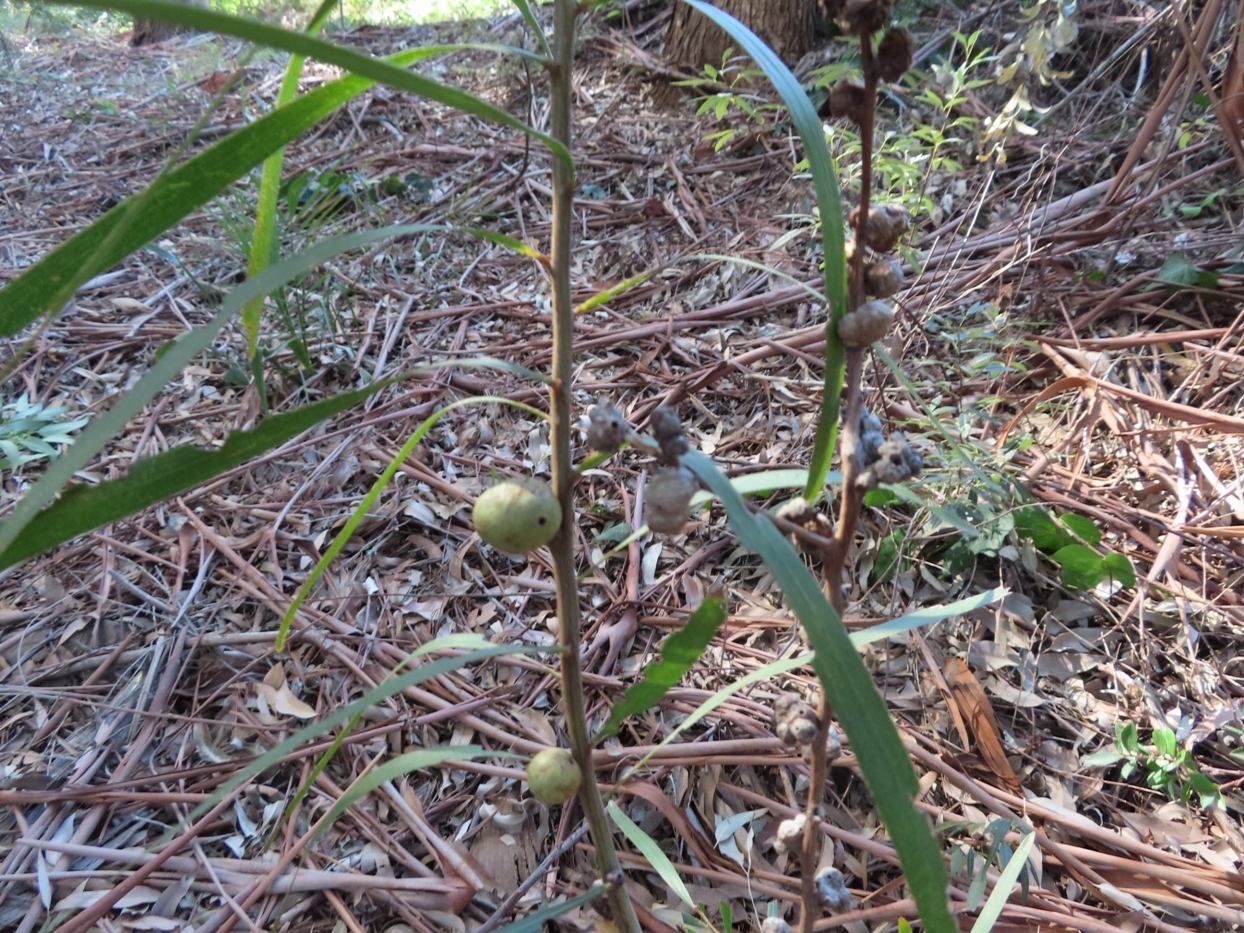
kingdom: Animalia
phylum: Arthropoda
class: Insecta
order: Hymenoptera
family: Pteromalidae
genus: Trichilogaster
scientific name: Trichilogaster acaciaelongifoliae
